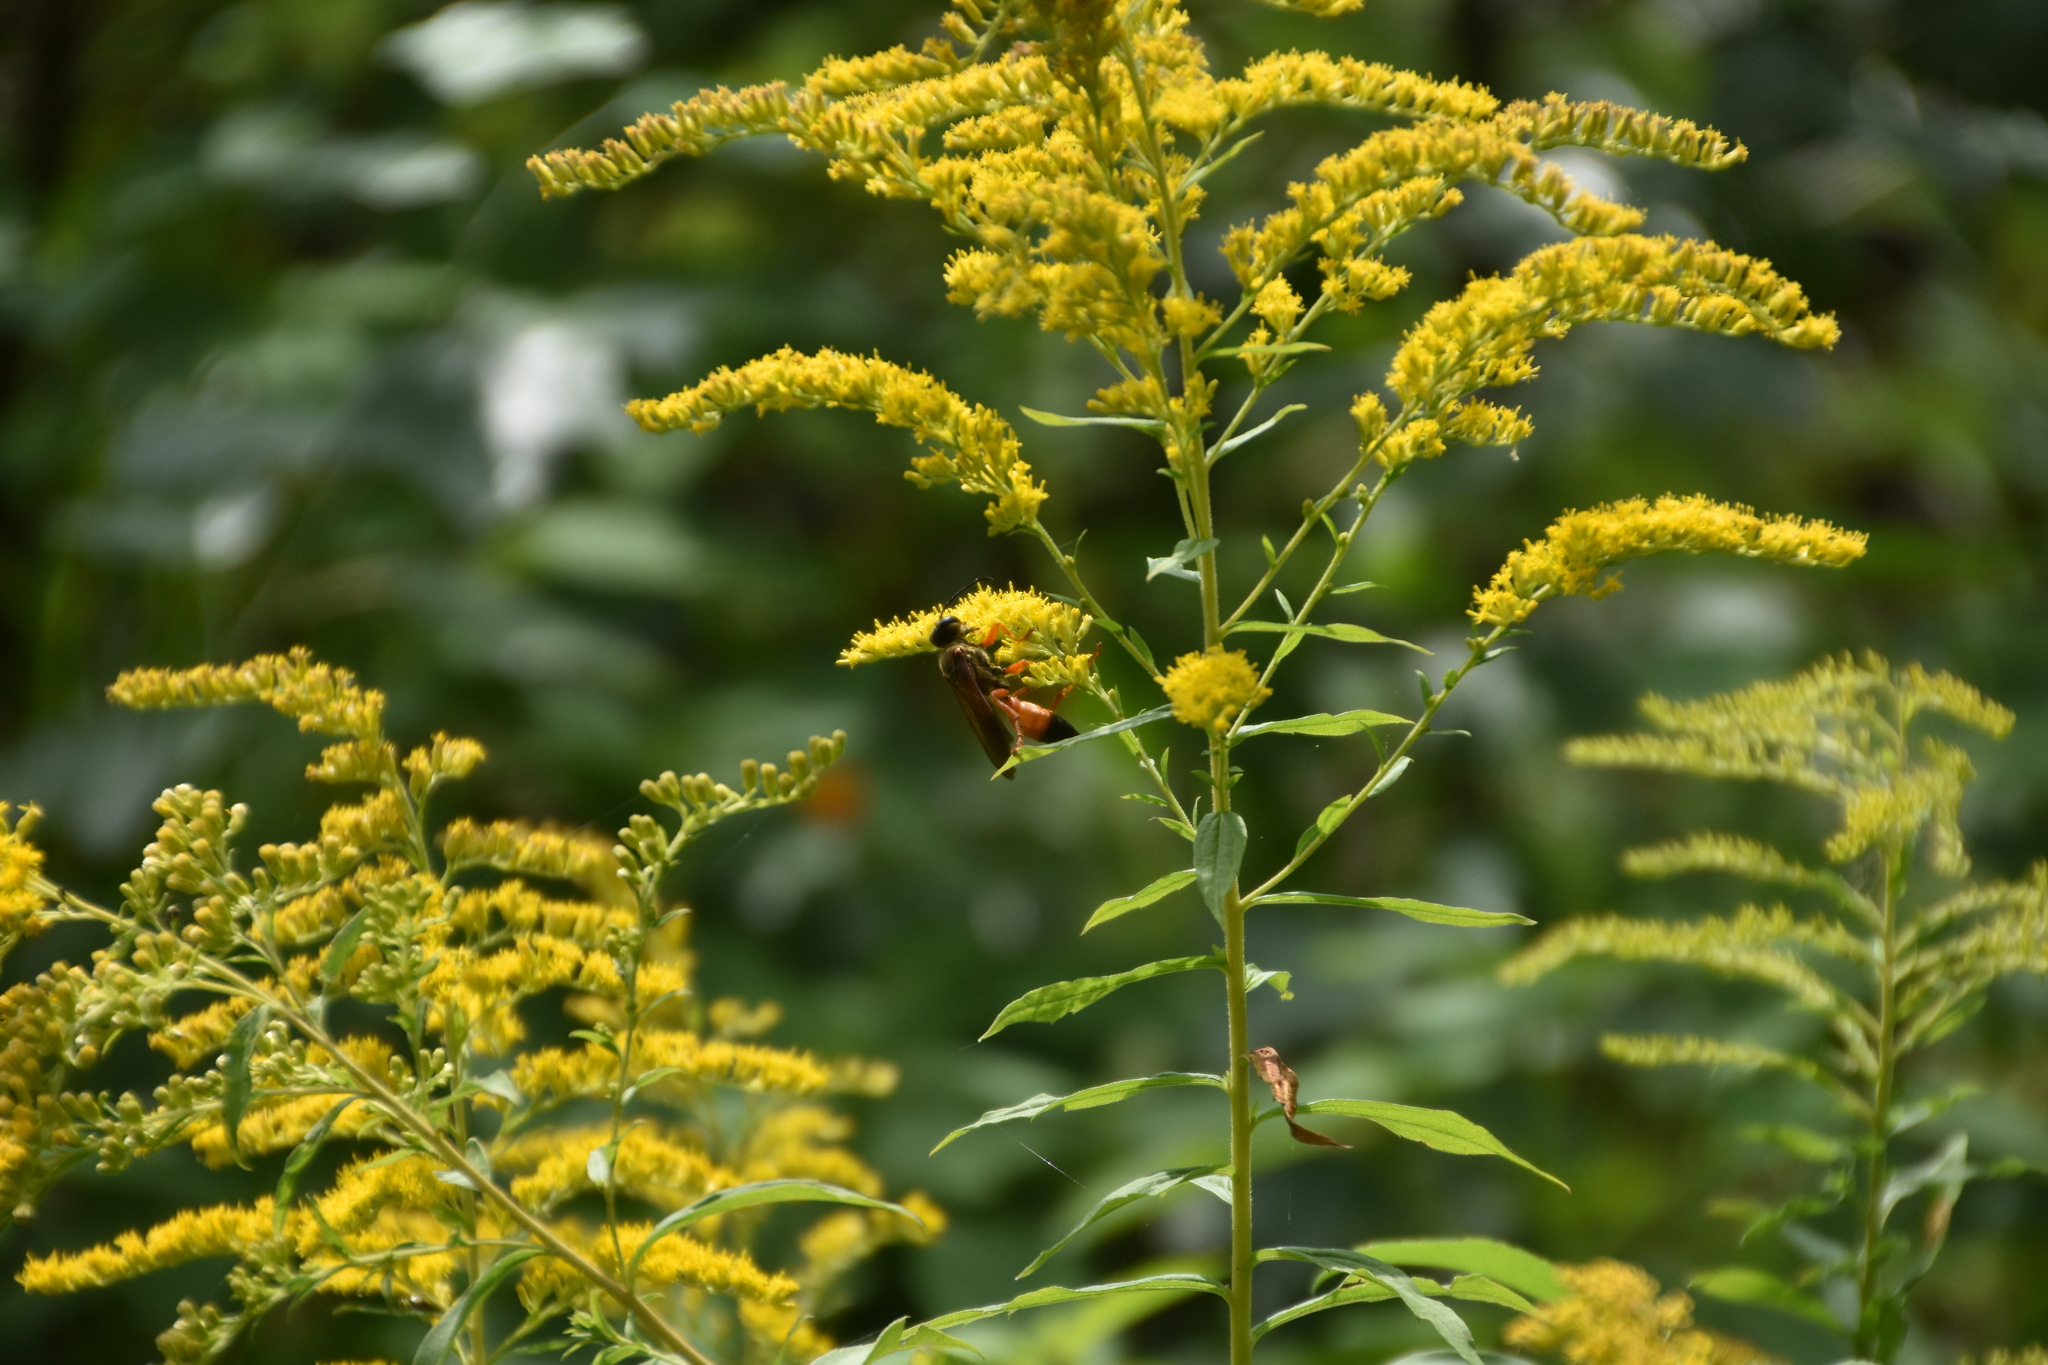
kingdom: Animalia
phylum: Arthropoda
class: Insecta
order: Hymenoptera
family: Sphecidae
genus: Sphex
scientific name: Sphex ichneumoneus
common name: Great golden digger wasp
